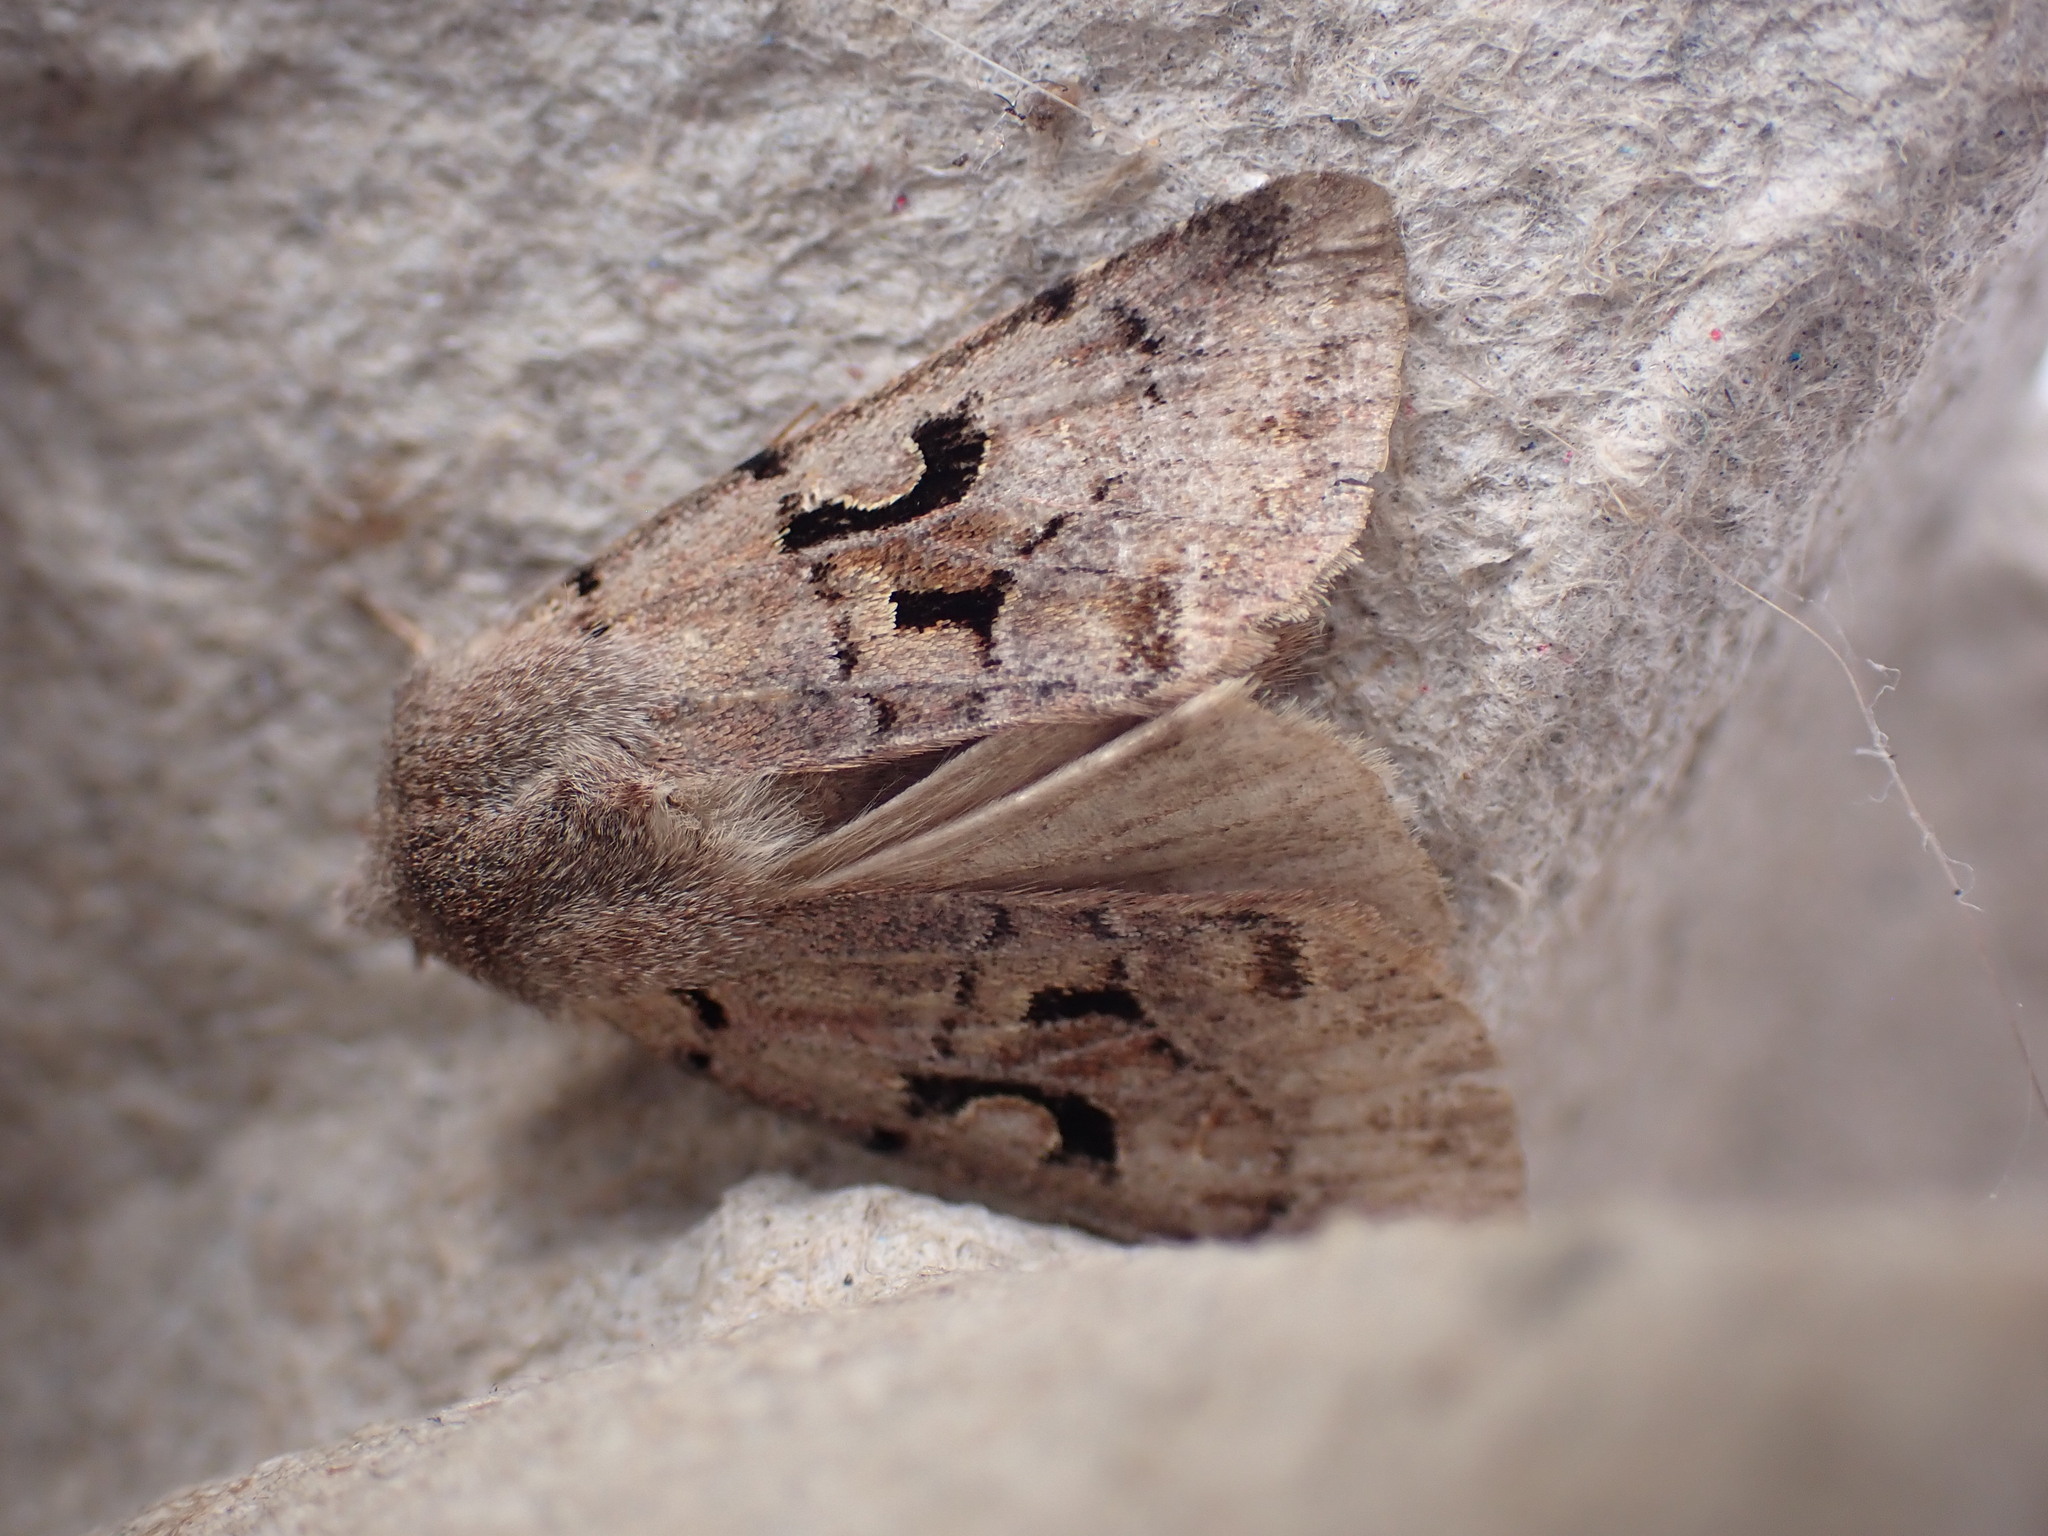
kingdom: Animalia
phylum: Arthropoda
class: Insecta
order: Lepidoptera
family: Noctuidae
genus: Orthosia
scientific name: Orthosia gothica
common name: Hebrew character
